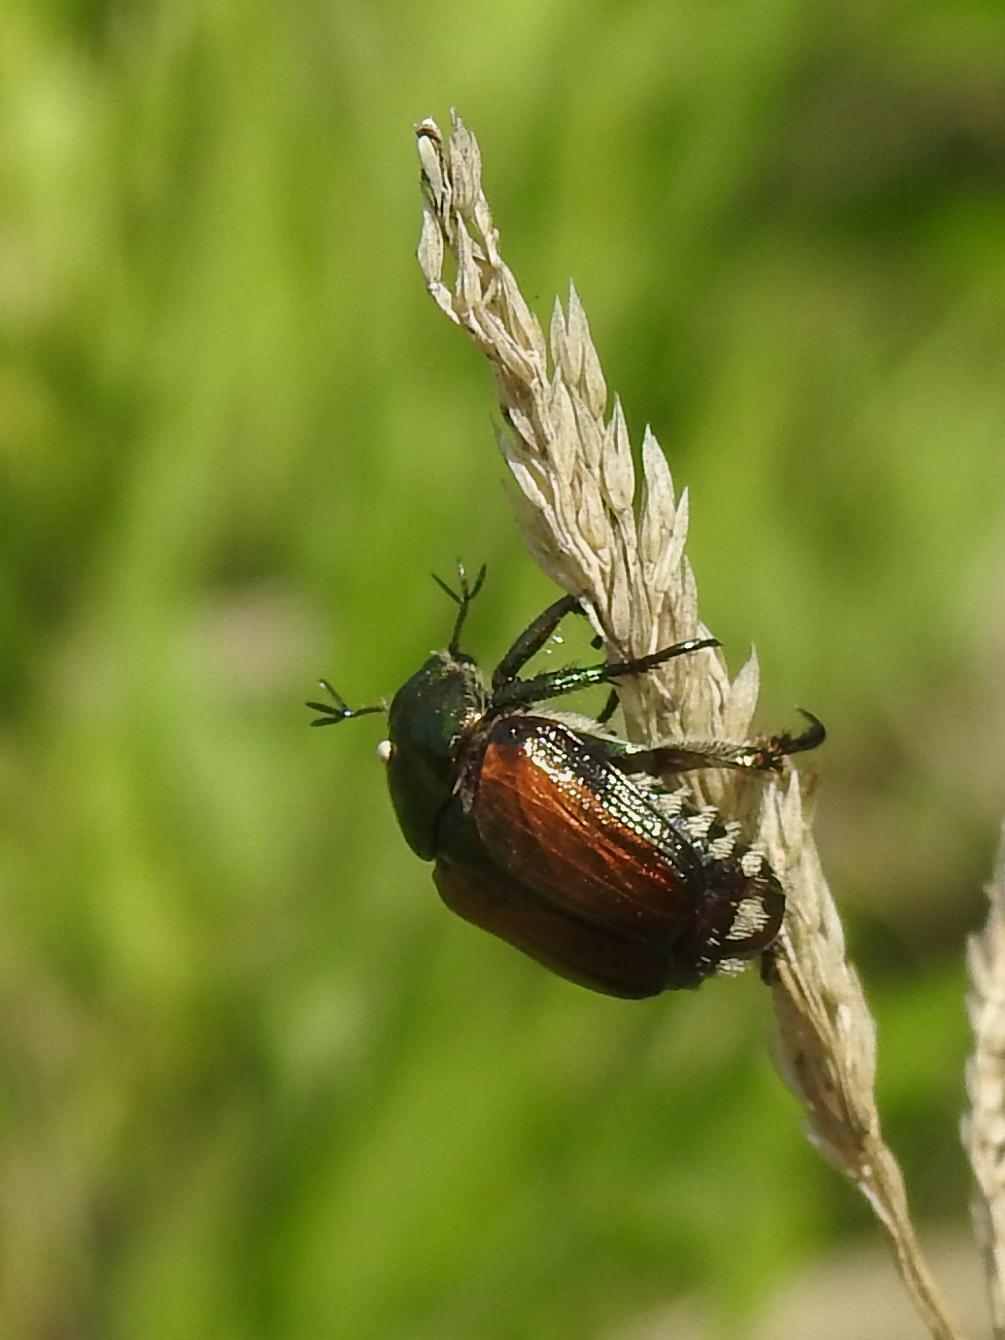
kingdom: Animalia
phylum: Arthropoda
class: Insecta
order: Coleoptera
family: Scarabaeidae
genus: Popillia
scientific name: Popillia japonica
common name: Japanese beetle
